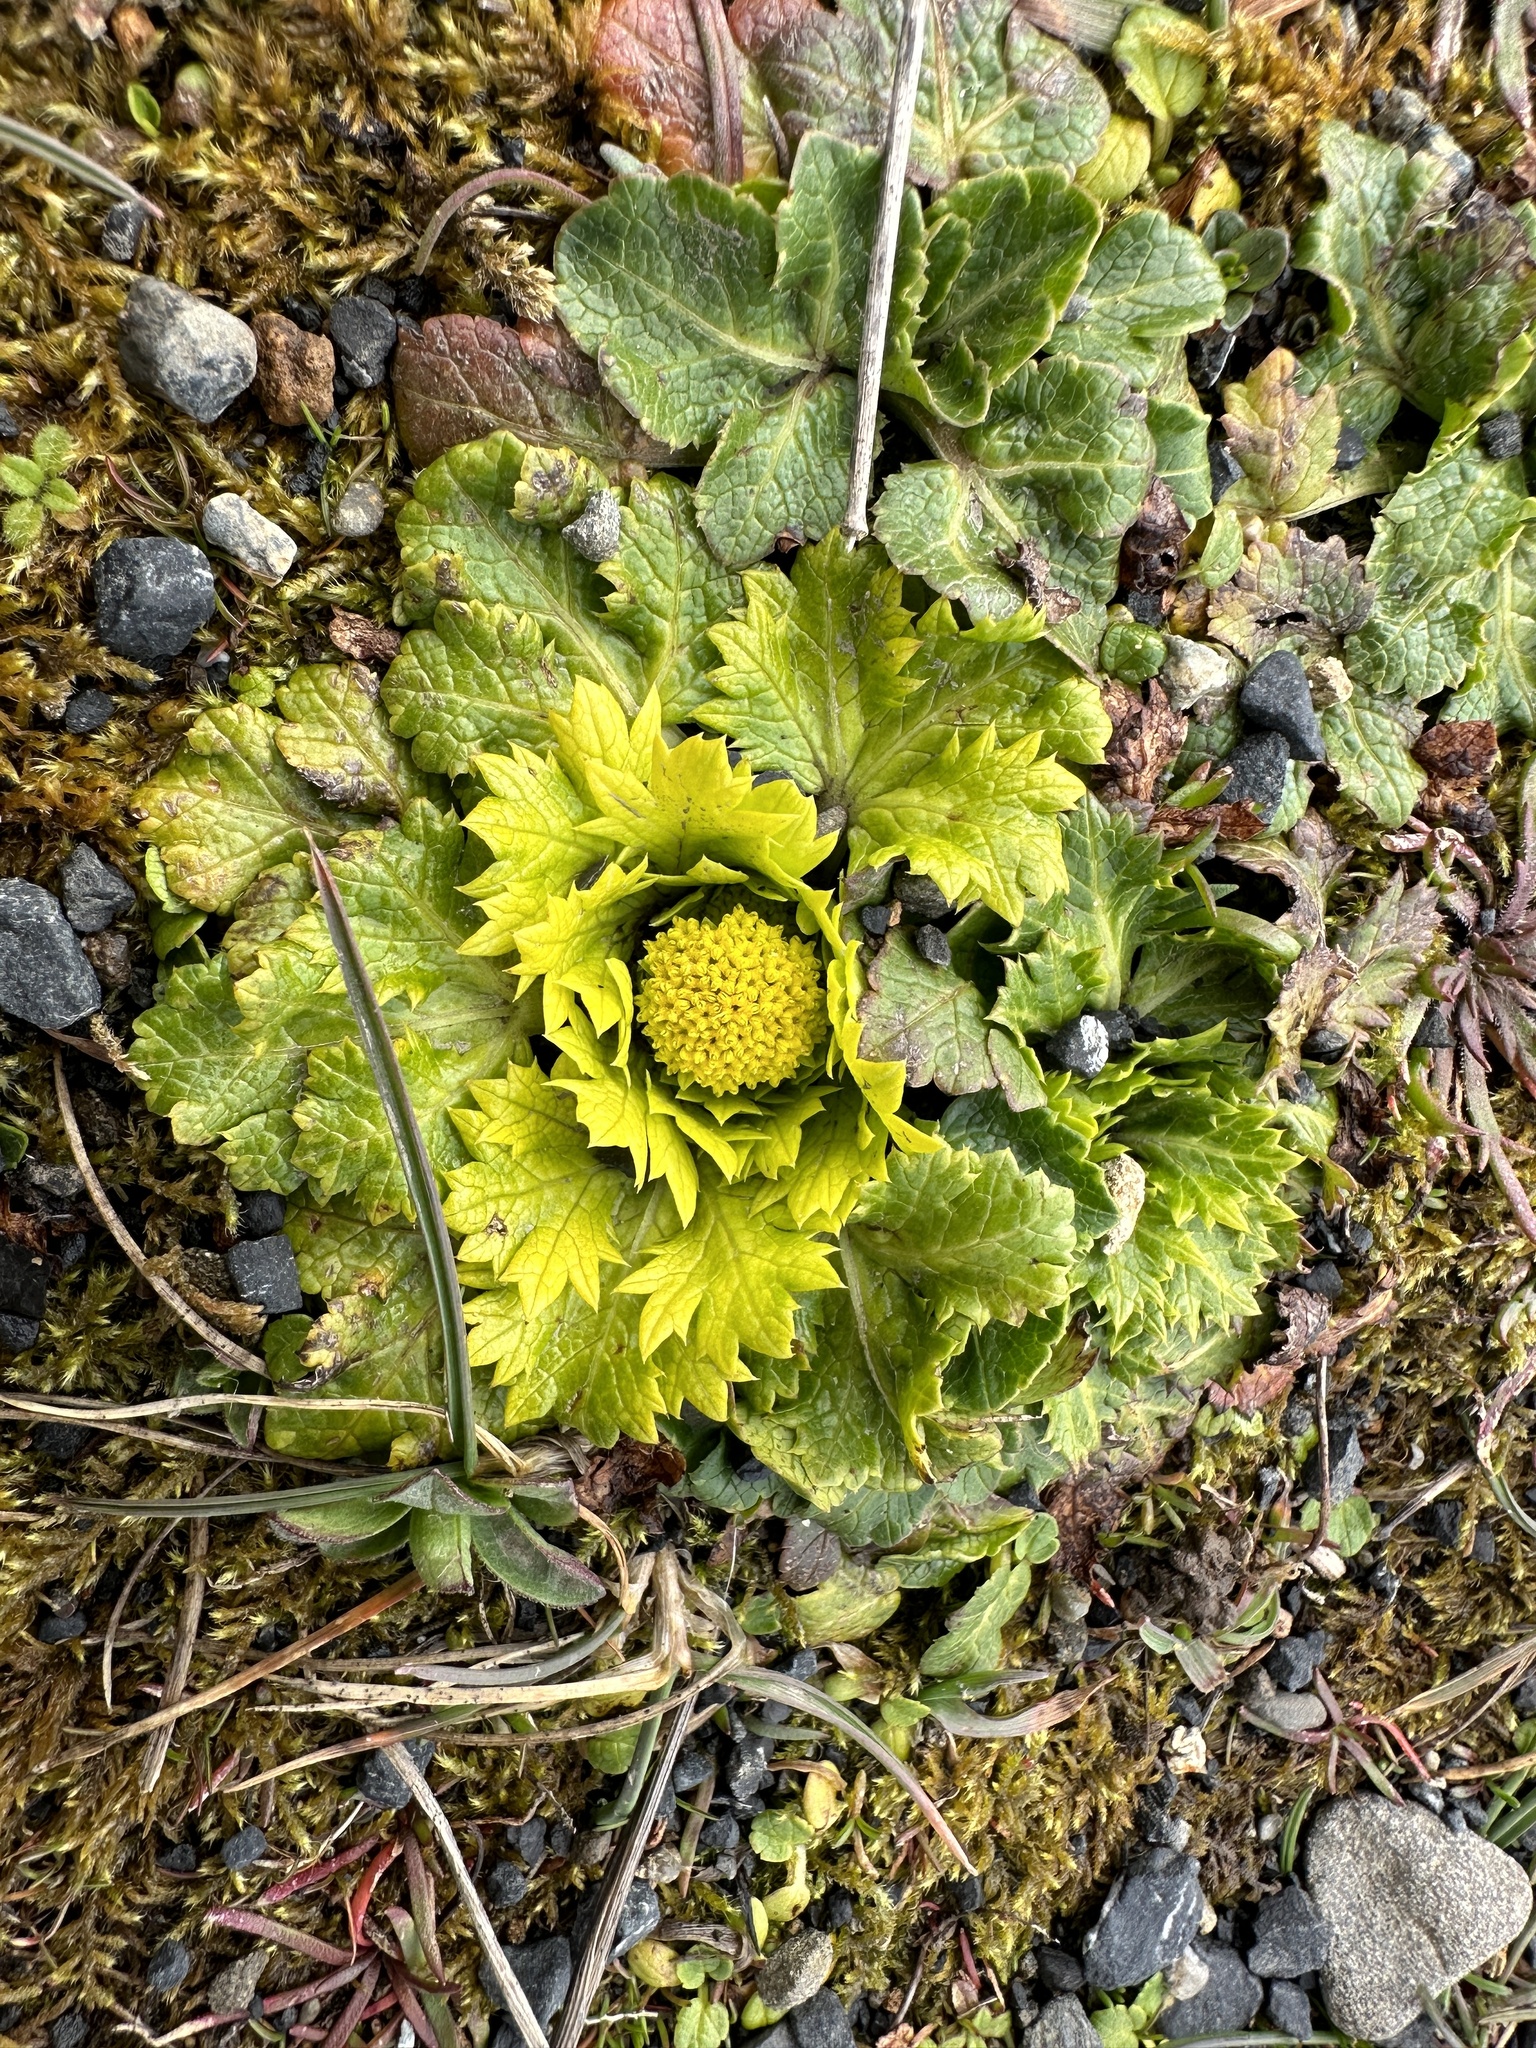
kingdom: Plantae
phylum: Tracheophyta
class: Magnoliopsida
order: Apiales
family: Apiaceae
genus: Sanicula
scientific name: Sanicula arctopoides
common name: Footsteps-of-spring
